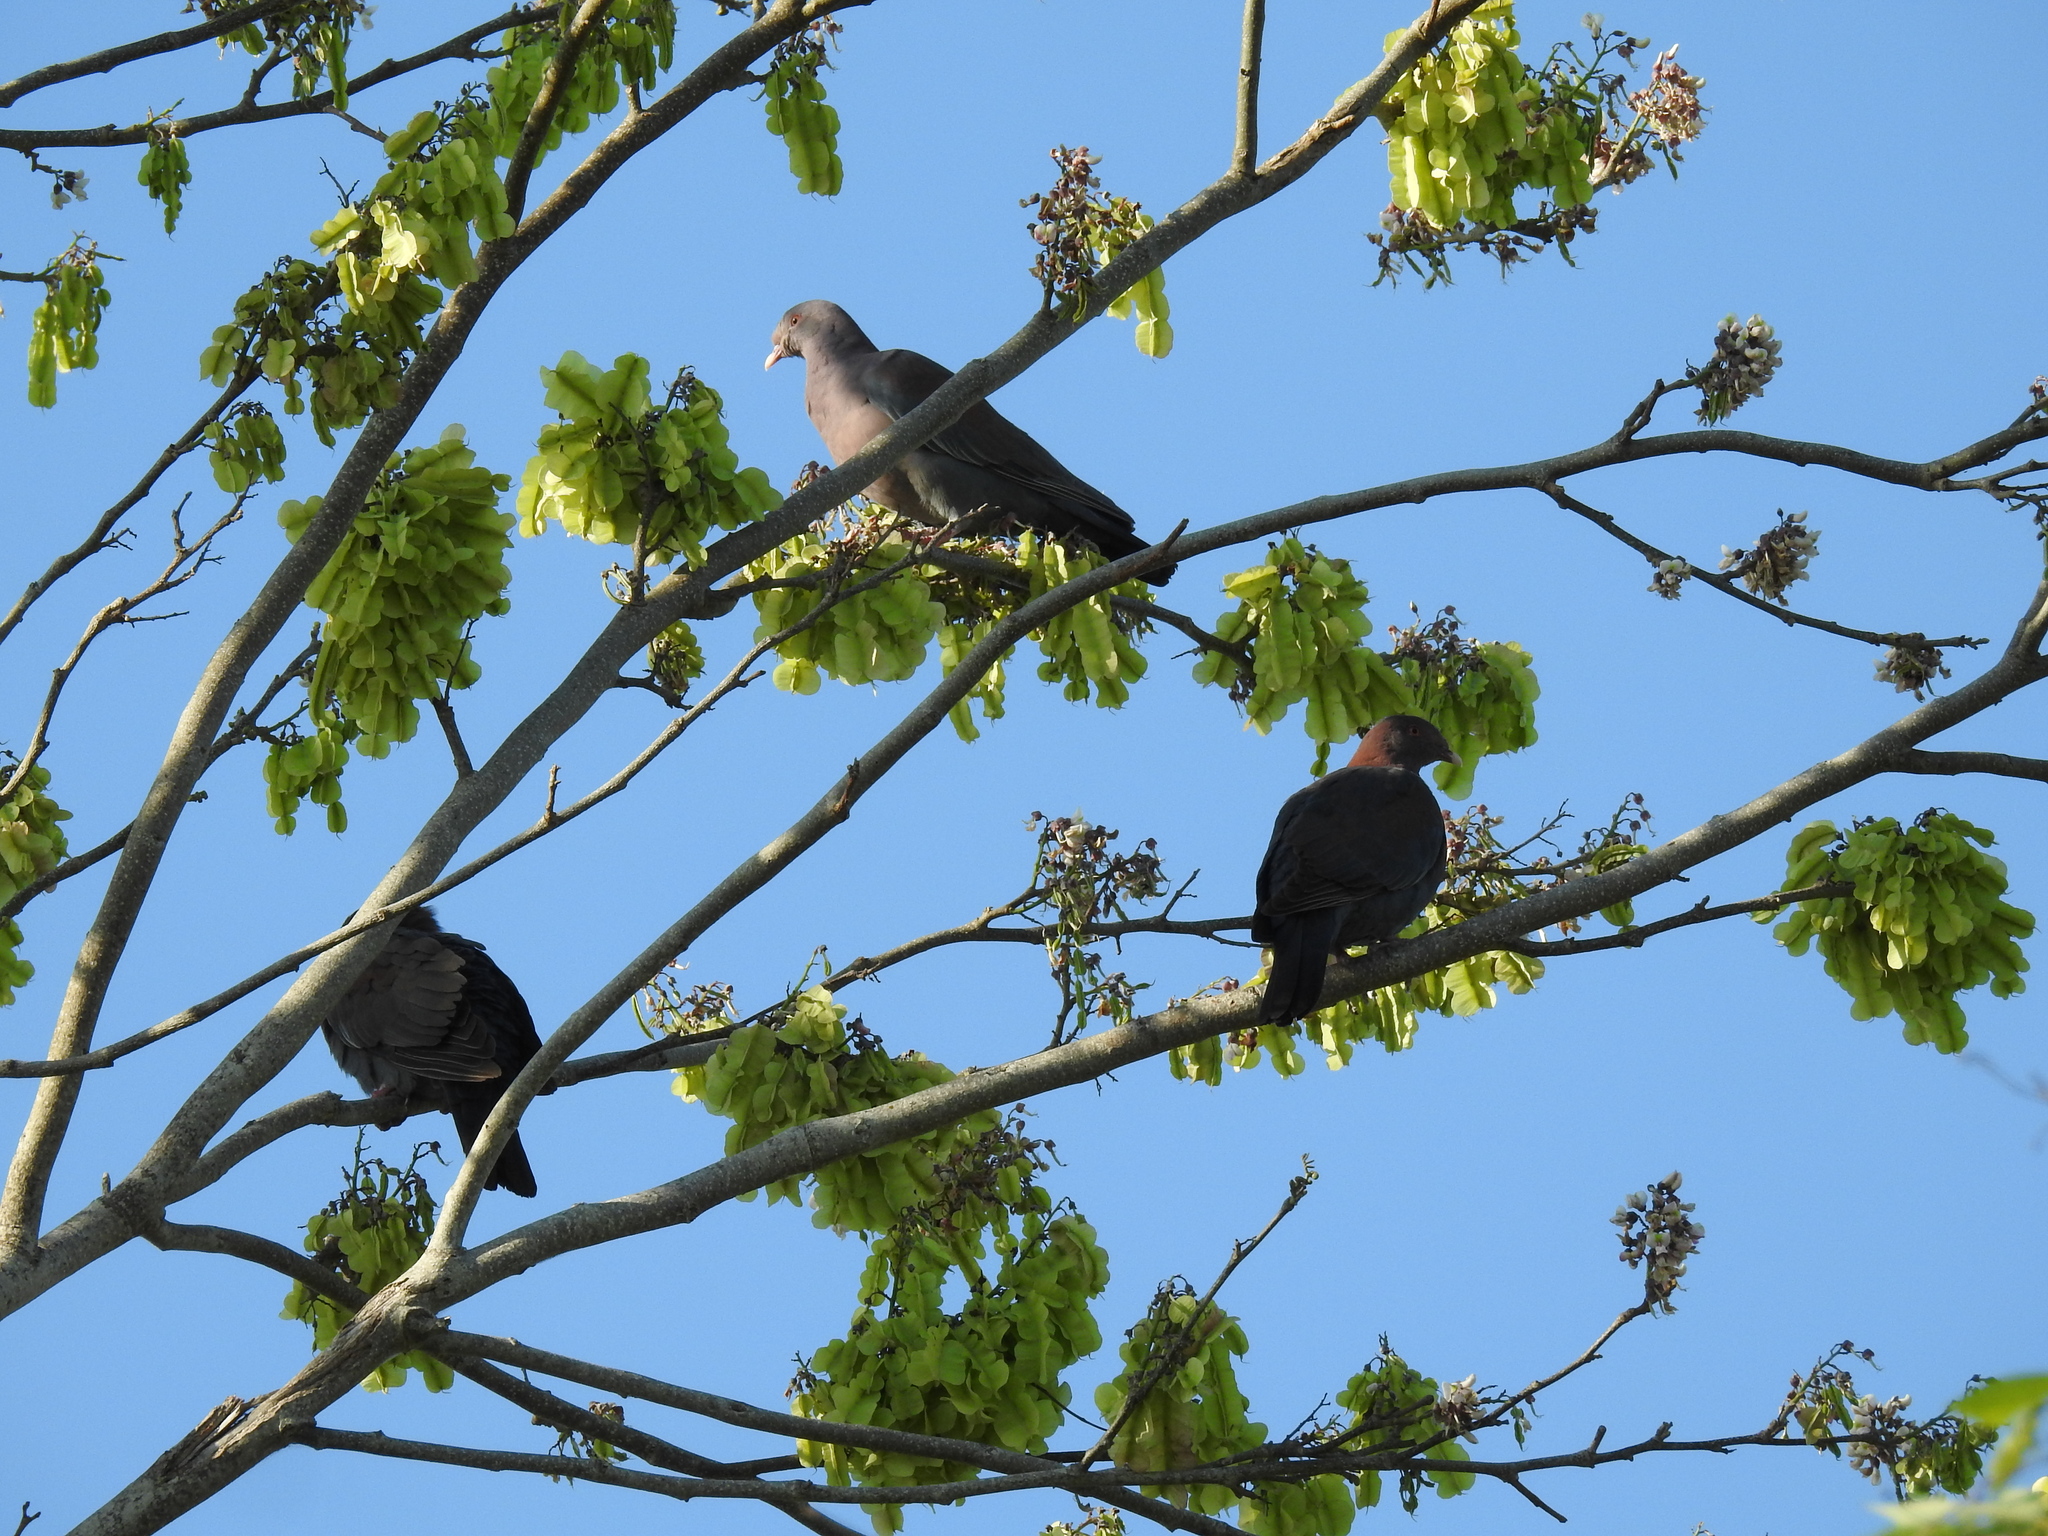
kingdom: Animalia
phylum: Chordata
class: Aves
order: Columbiformes
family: Columbidae
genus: Patagioenas
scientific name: Patagioenas flavirostris
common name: Red-billed pigeon
